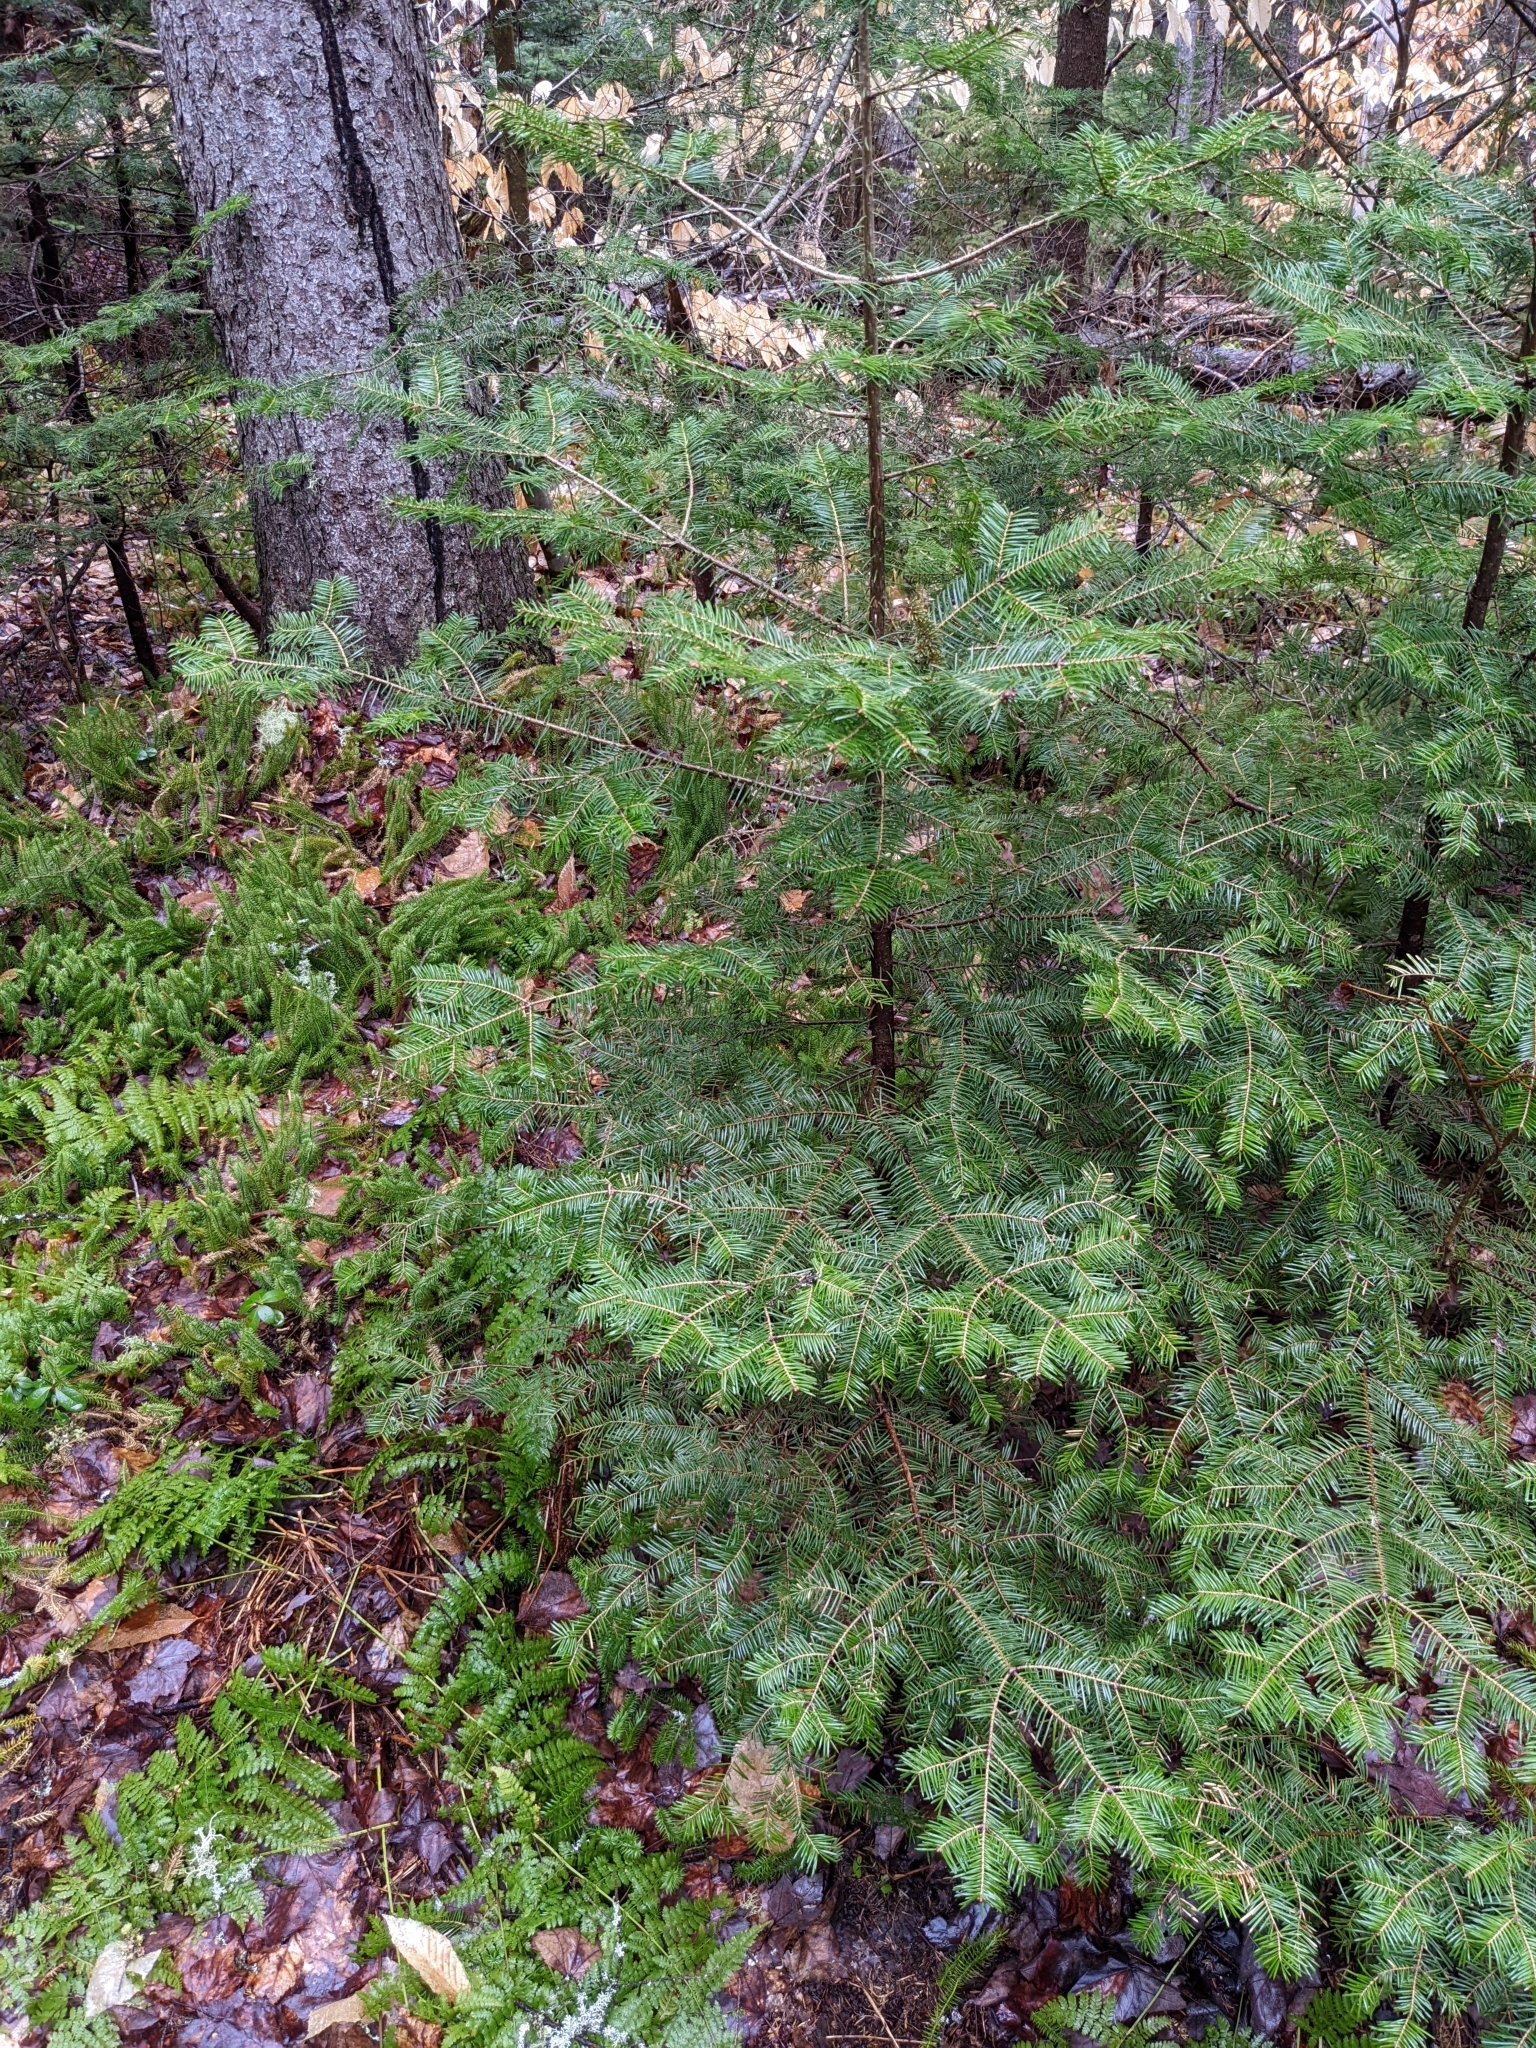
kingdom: Plantae
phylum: Tracheophyta
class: Pinopsida
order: Pinales
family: Pinaceae
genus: Abies
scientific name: Abies balsamea
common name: Balsam fir
